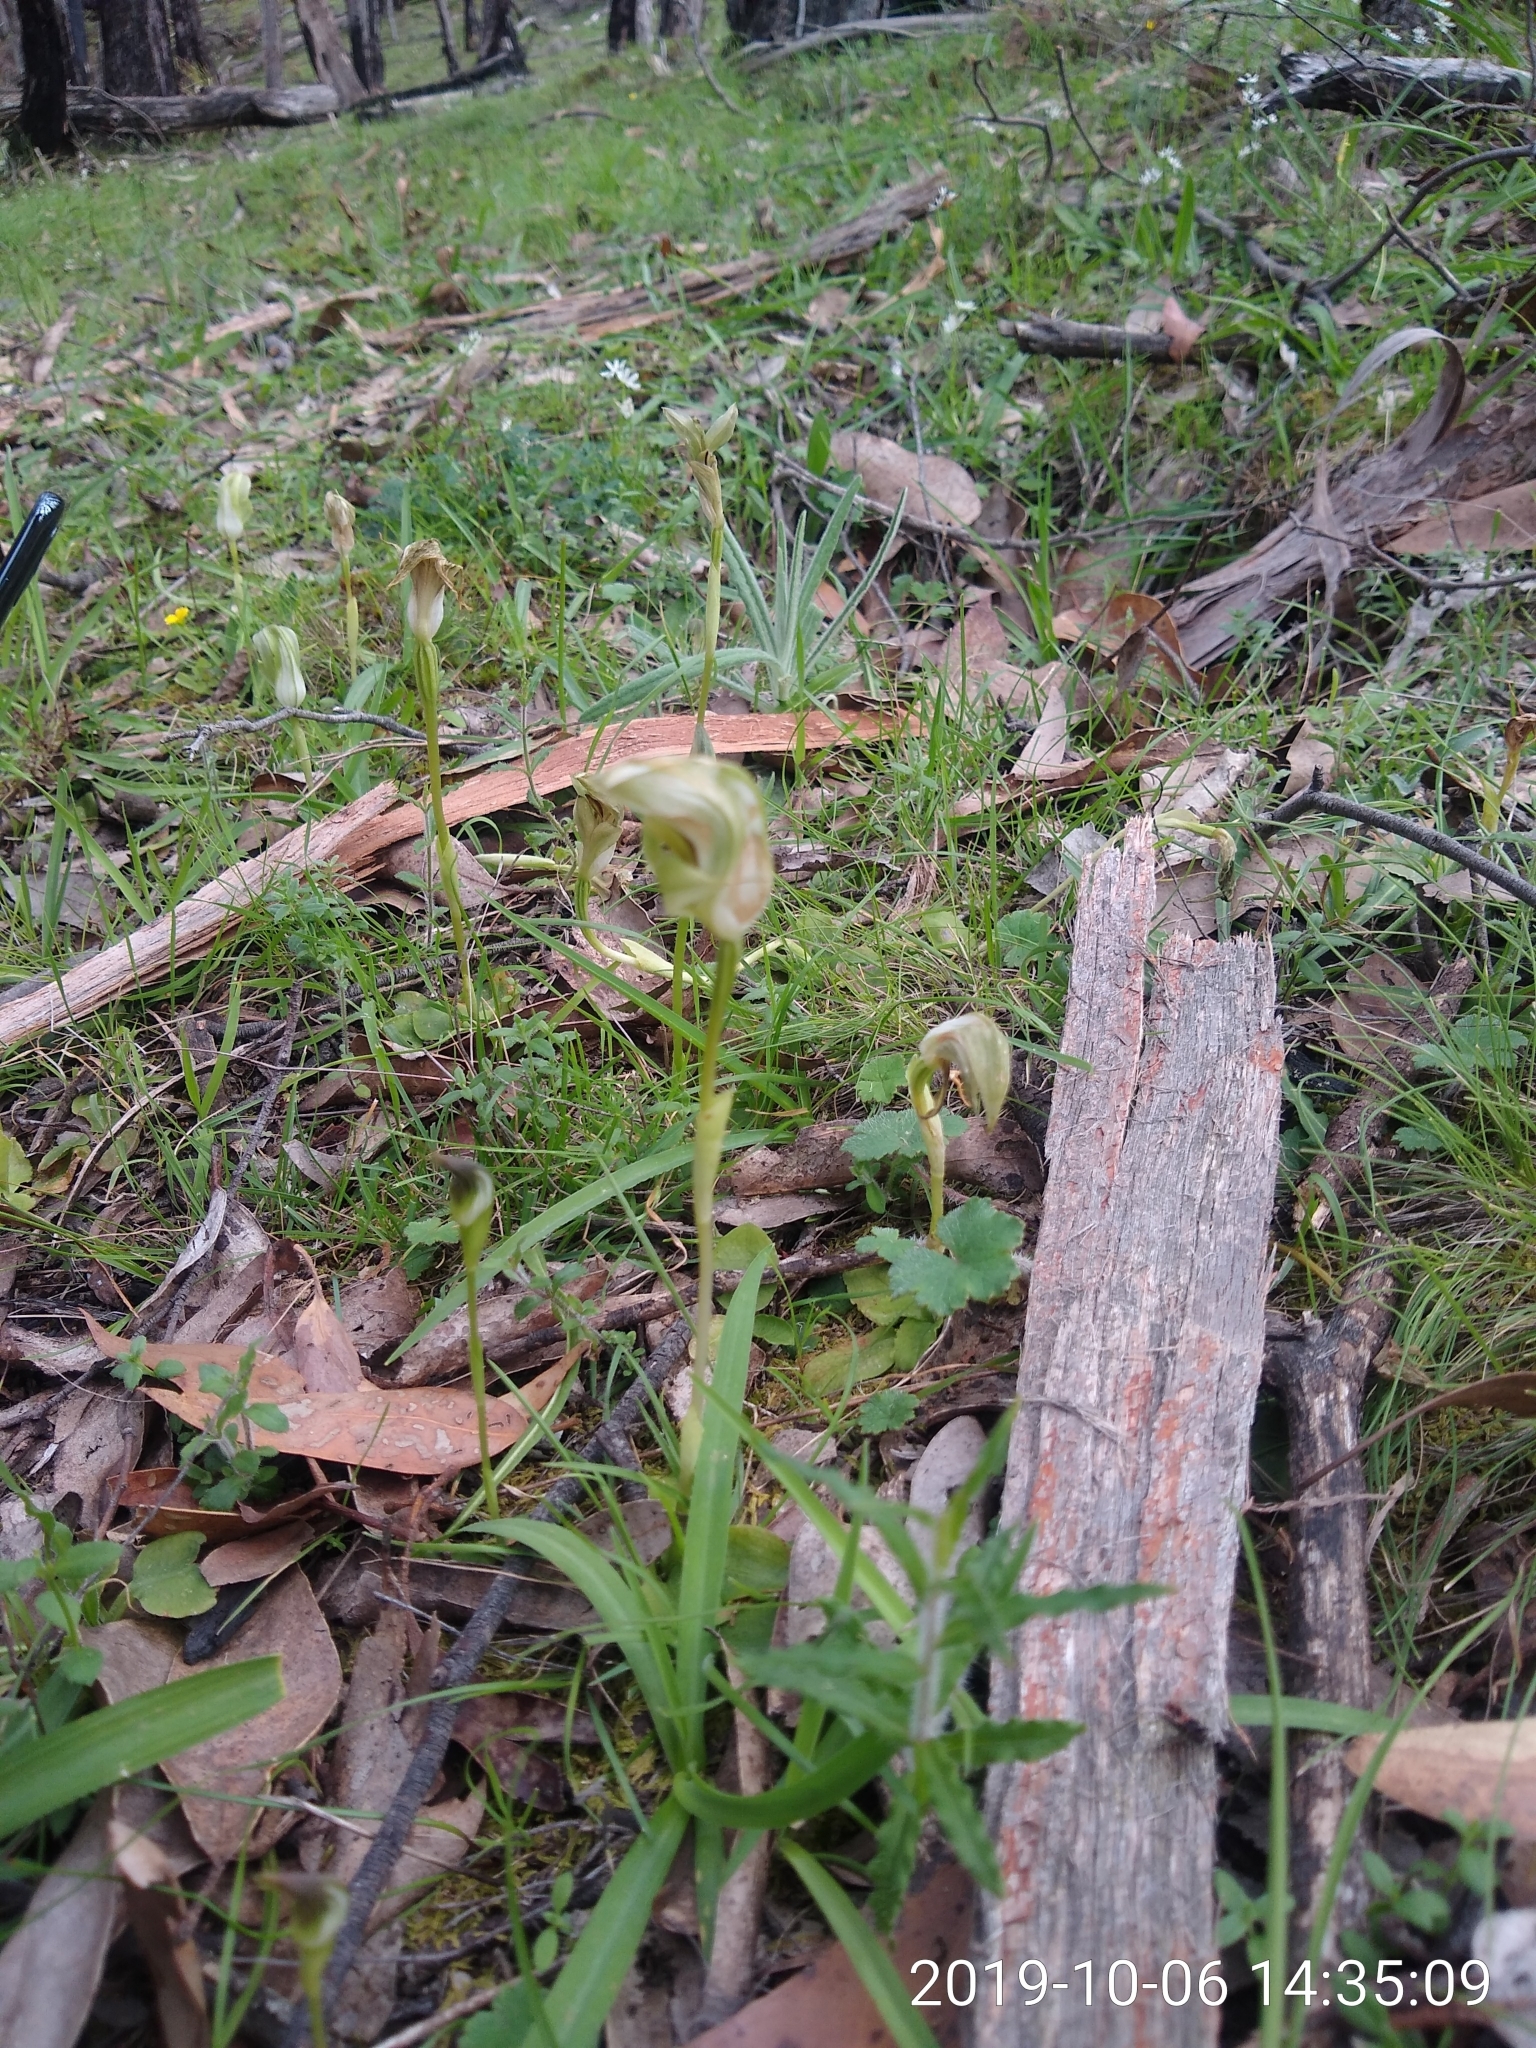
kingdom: Plantae
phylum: Tracheophyta
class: Liliopsida
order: Asparagales
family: Orchidaceae
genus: Pterostylis
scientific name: Pterostylis curta
